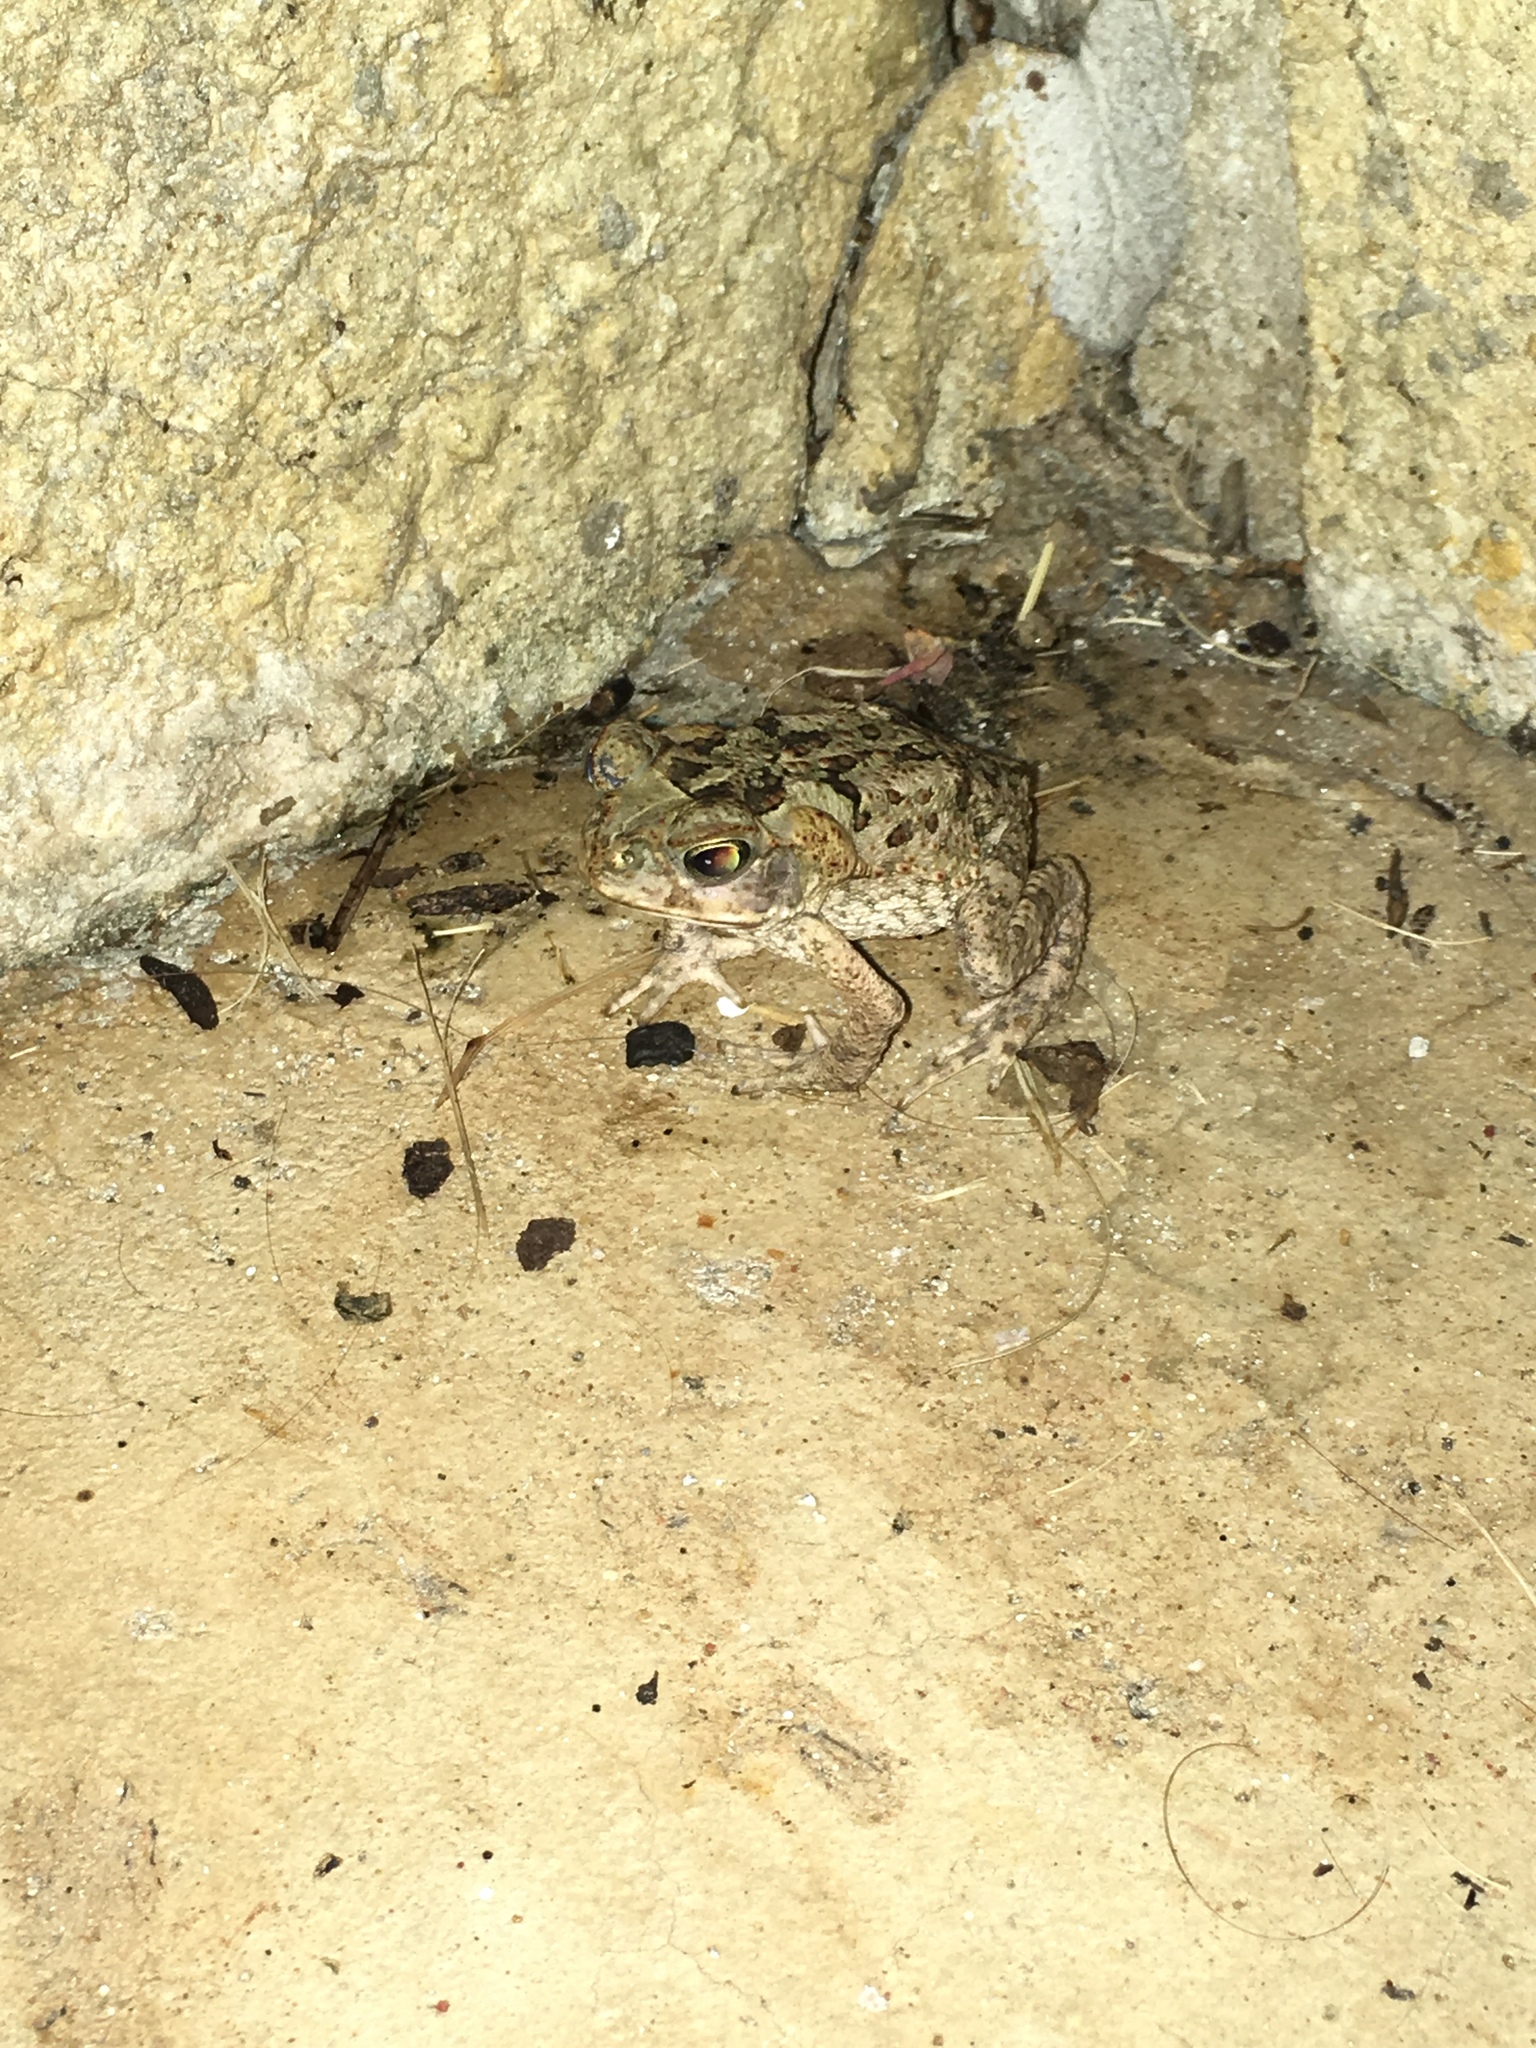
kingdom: Animalia
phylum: Chordata
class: Amphibia
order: Anura
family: Bufonidae
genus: Rhinella
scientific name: Rhinella marina
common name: Cane toad
